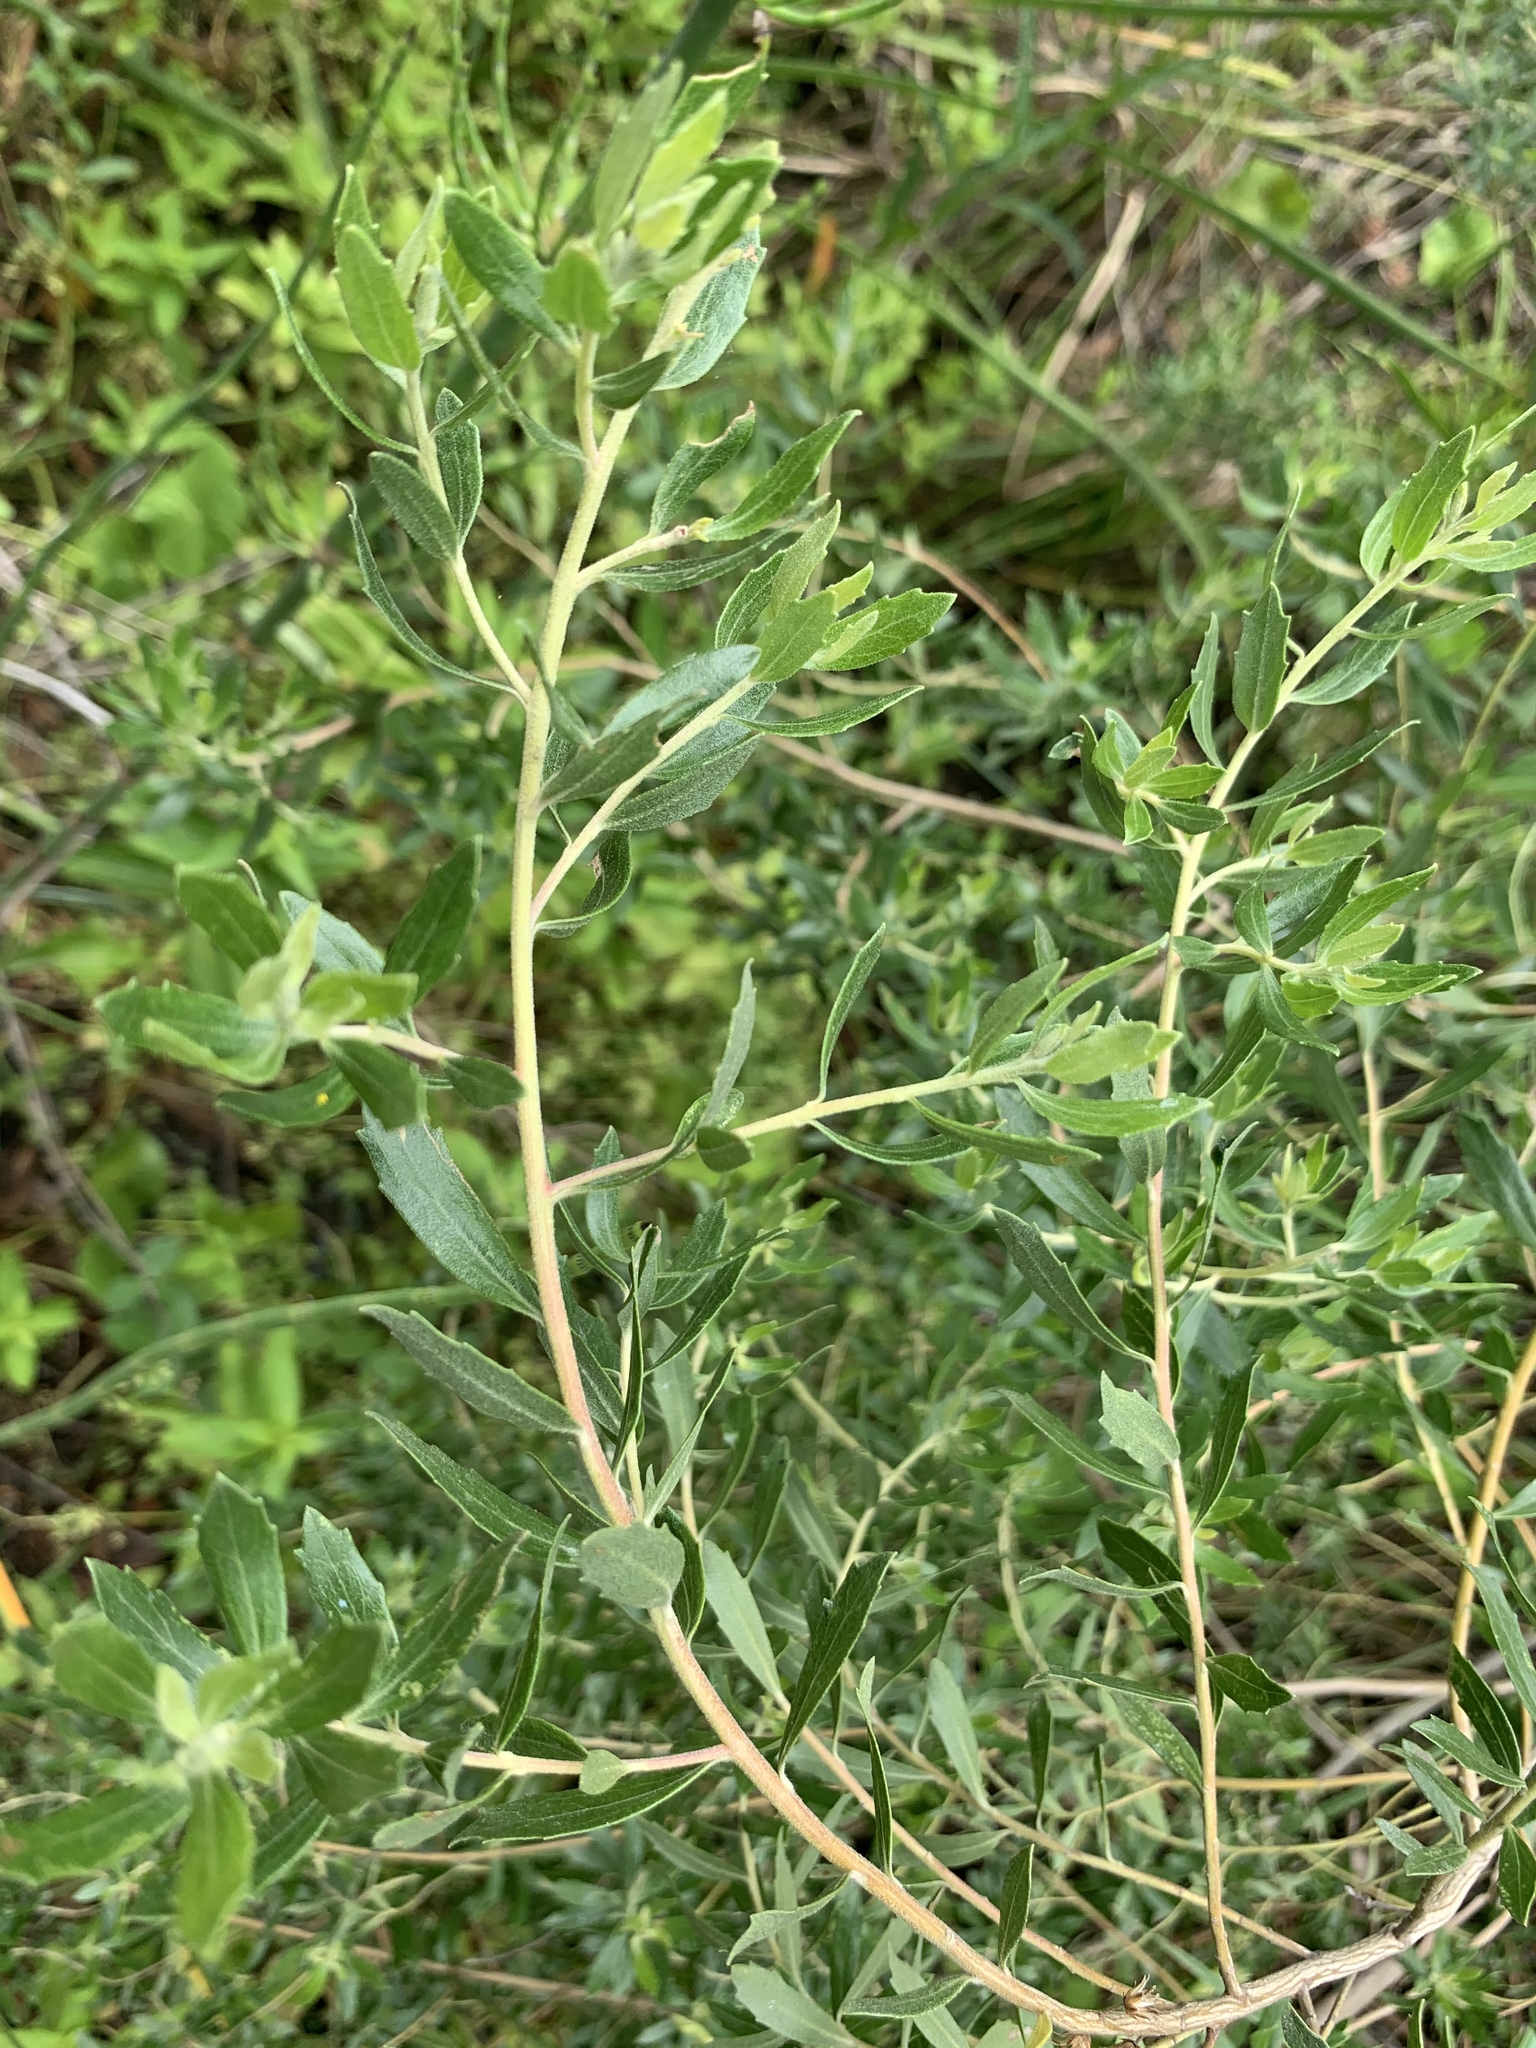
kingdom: Plantae
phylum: Tracheophyta
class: Magnoliopsida
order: Asterales
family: Asteraceae
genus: Baccharis
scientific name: Baccharis dracunculifolia
